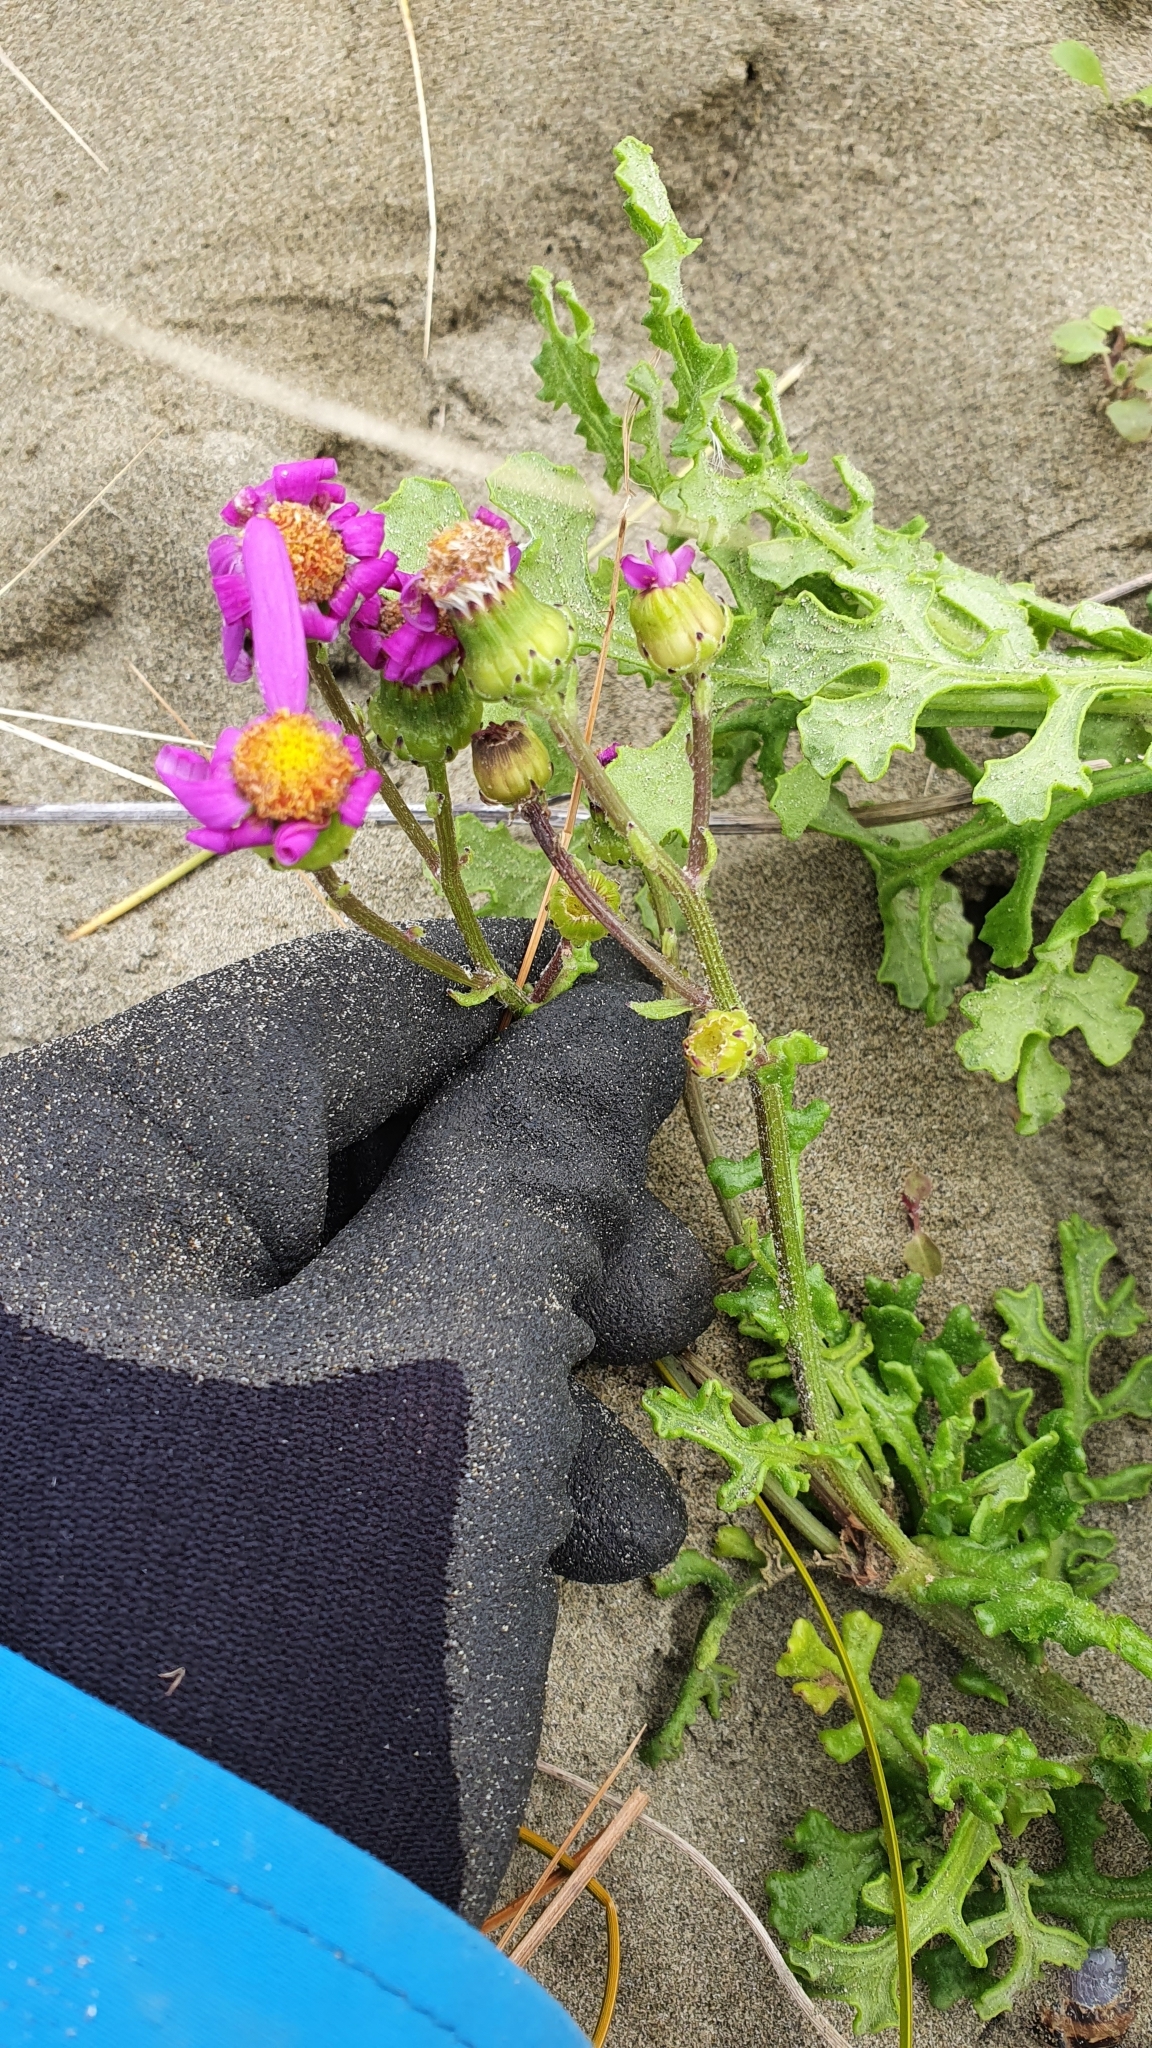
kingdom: Plantae
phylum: Tracheophyta
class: Magnoliopsida
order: Asterales
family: Asteraceae
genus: Senecio
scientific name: Senecio elegans
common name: Purple groundsel
